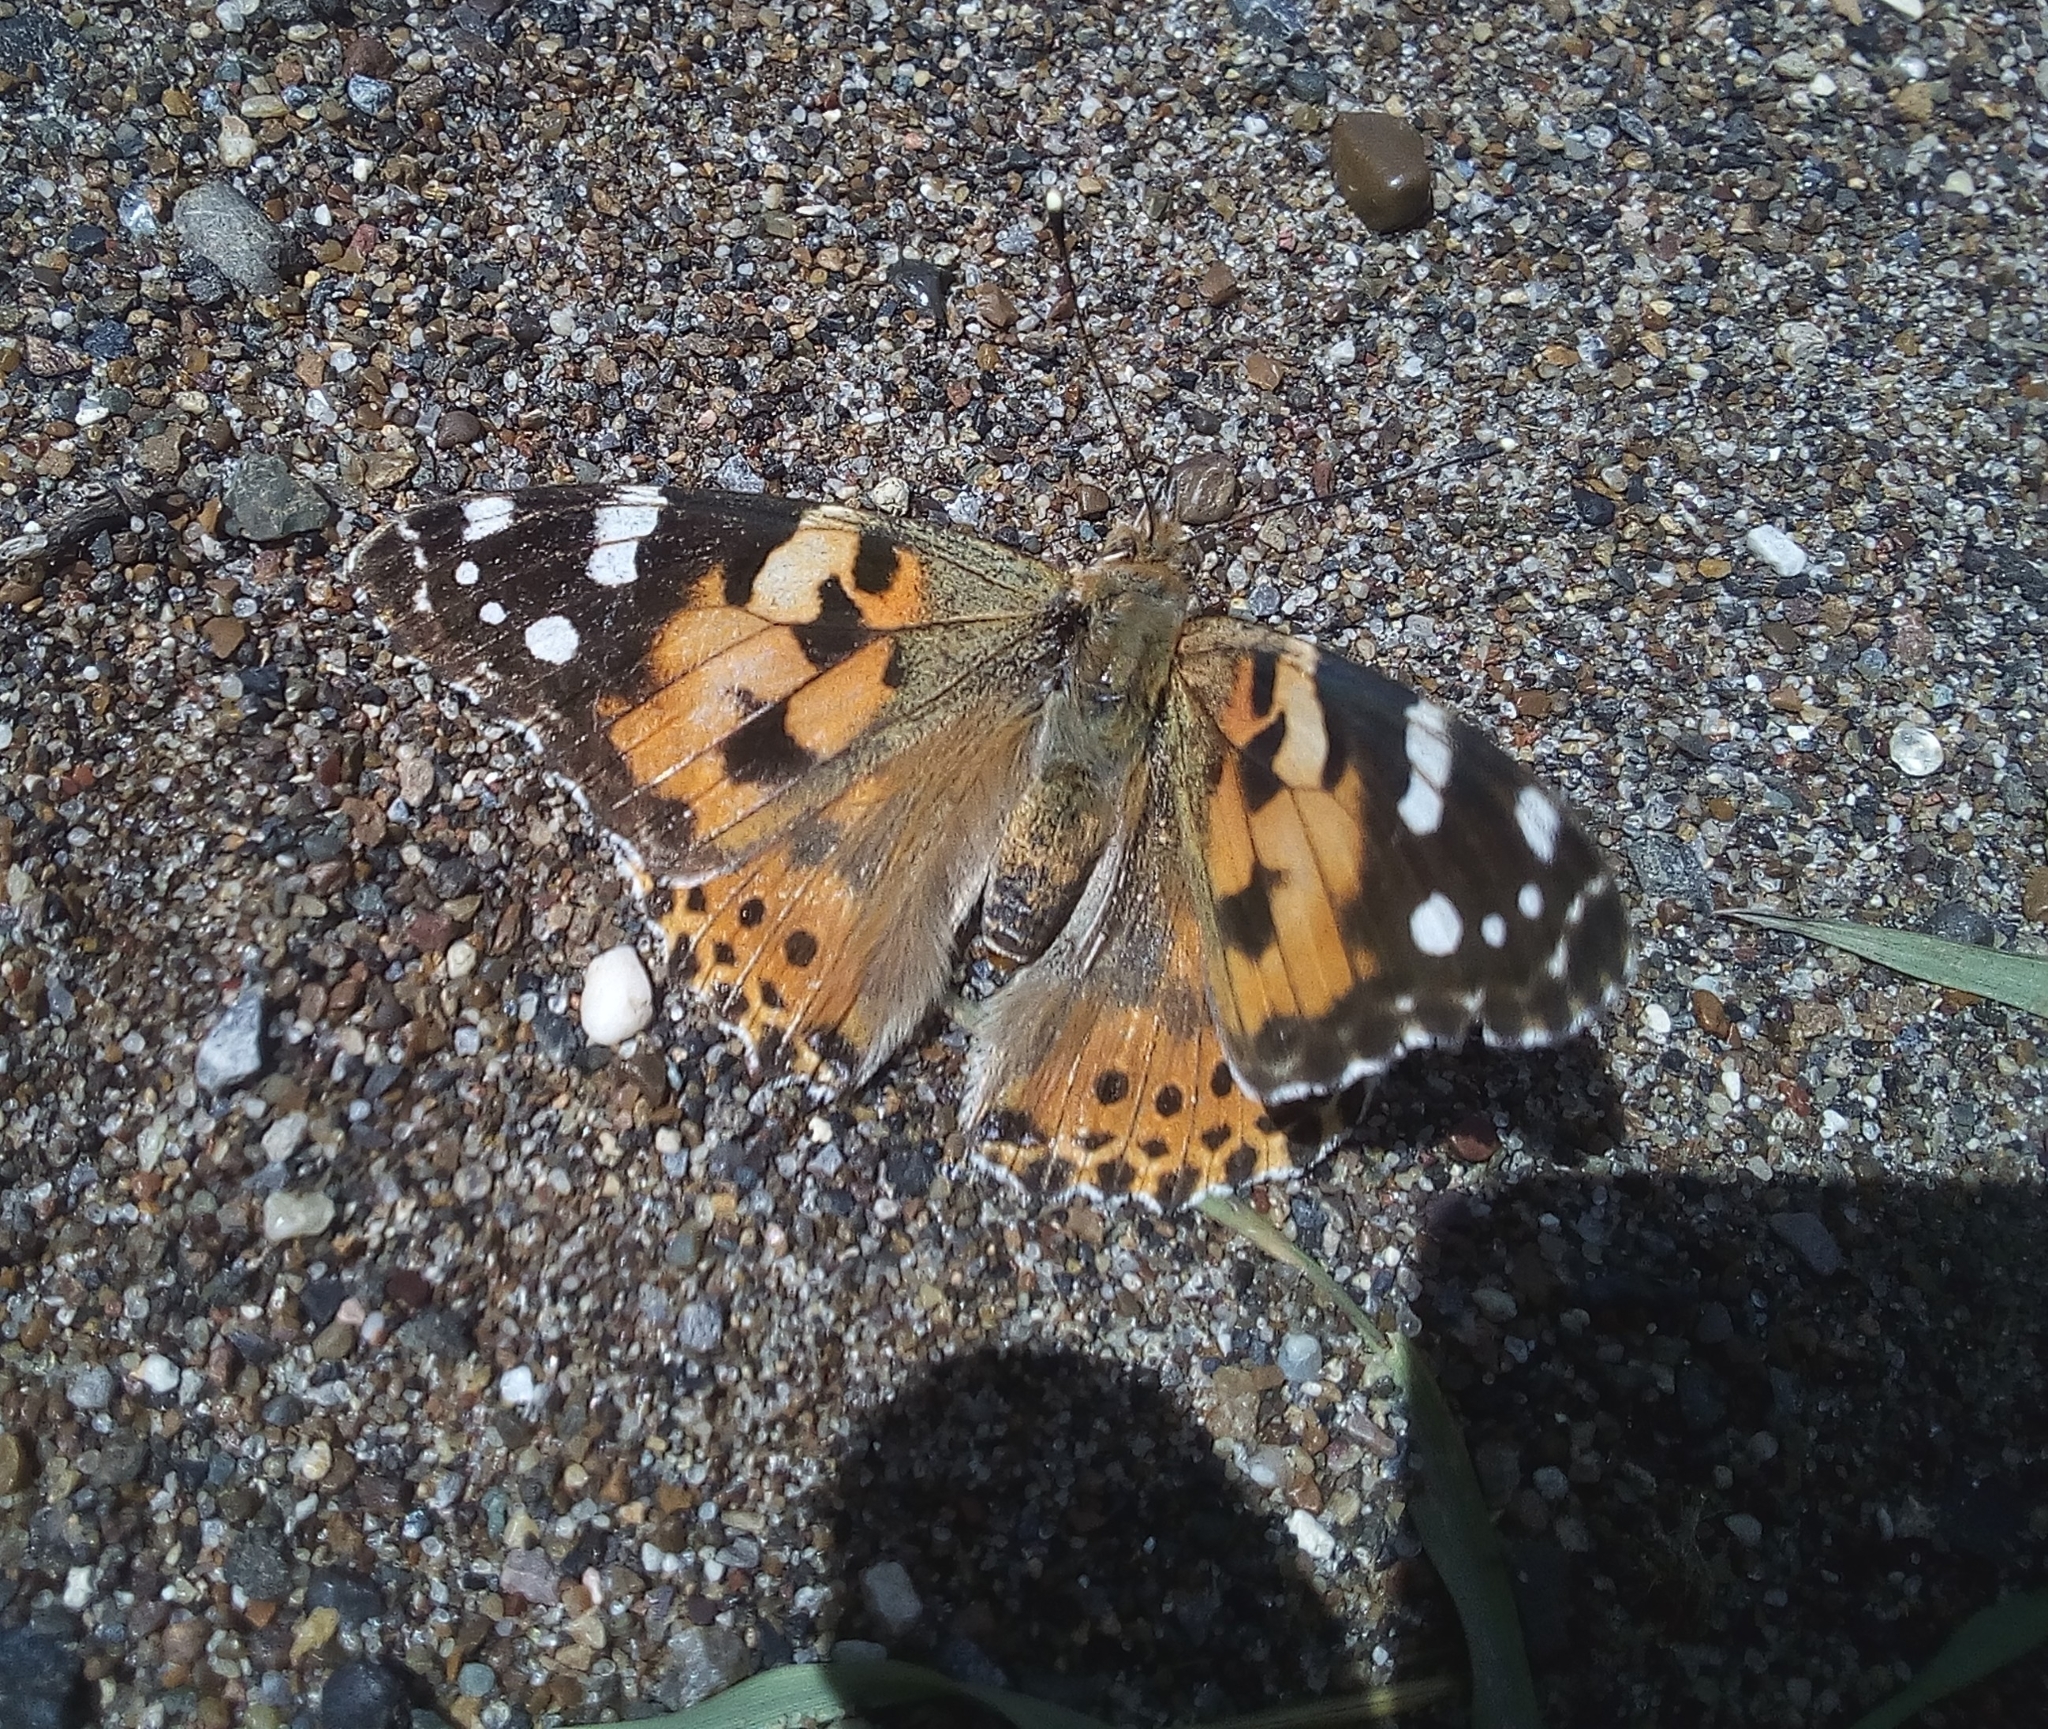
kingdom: Animalia
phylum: Arthropoda
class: Insecta
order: Lepidoptera
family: Nymphalidae
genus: Vanessa
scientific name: Vanessa cardui
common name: Painted lady
